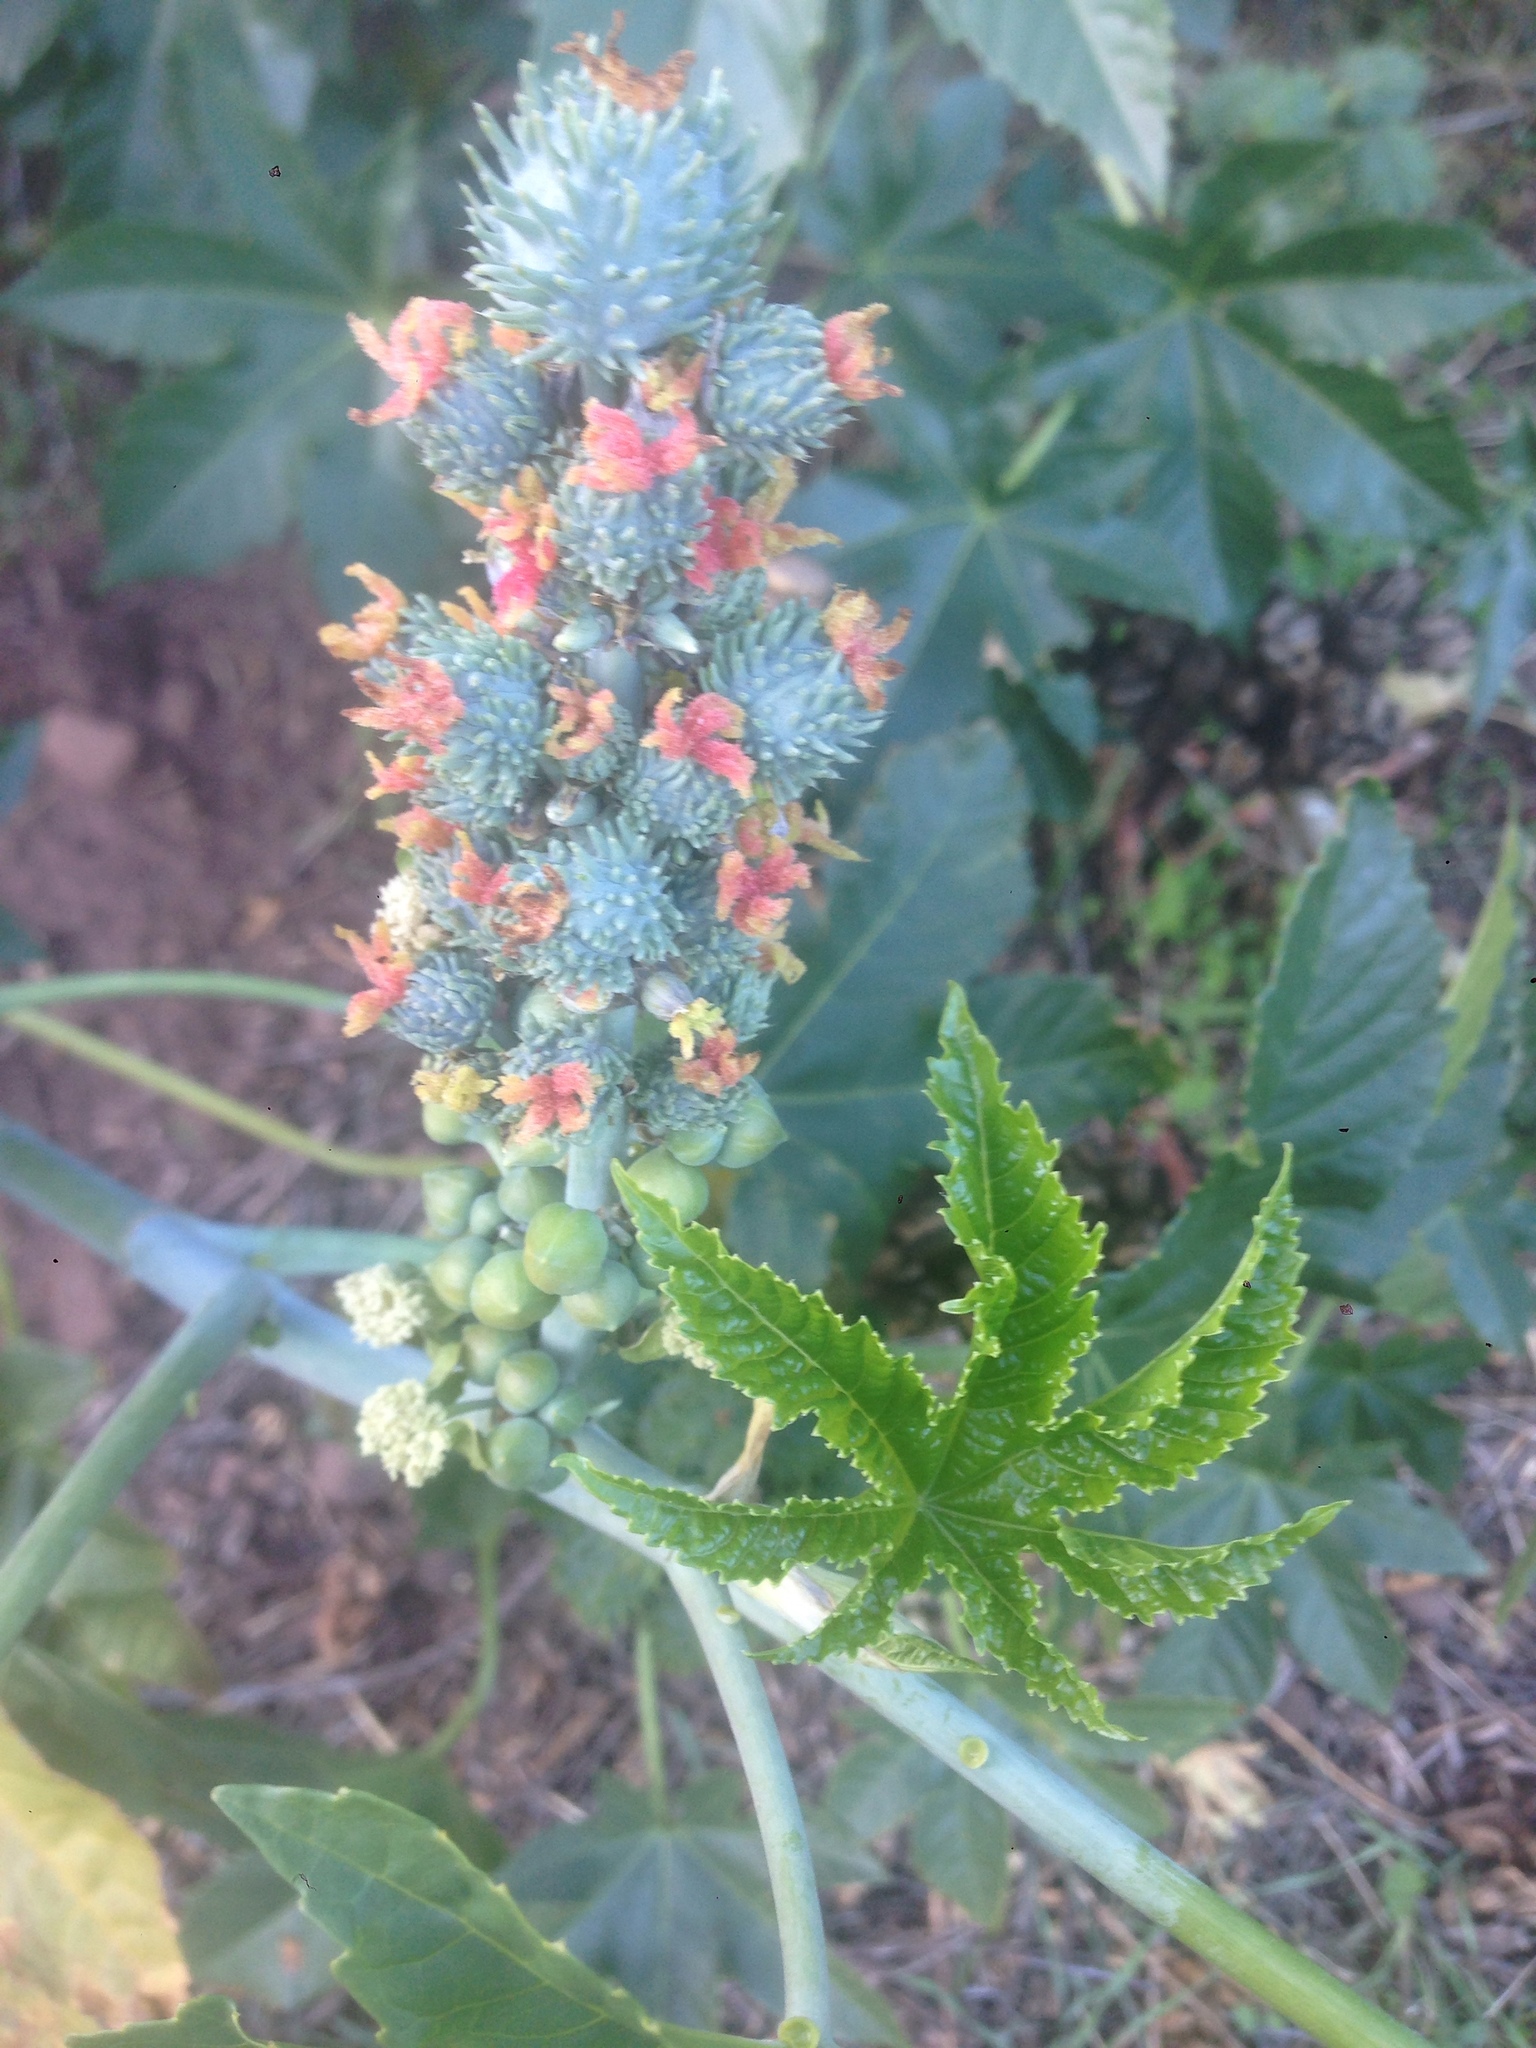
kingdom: Plantae
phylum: Tracheophyta
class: Magnoliopsida
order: Malpighiales
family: Euphorbiaceae
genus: Ricinus
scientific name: Ricinus communis
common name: Castor-oil-plant
